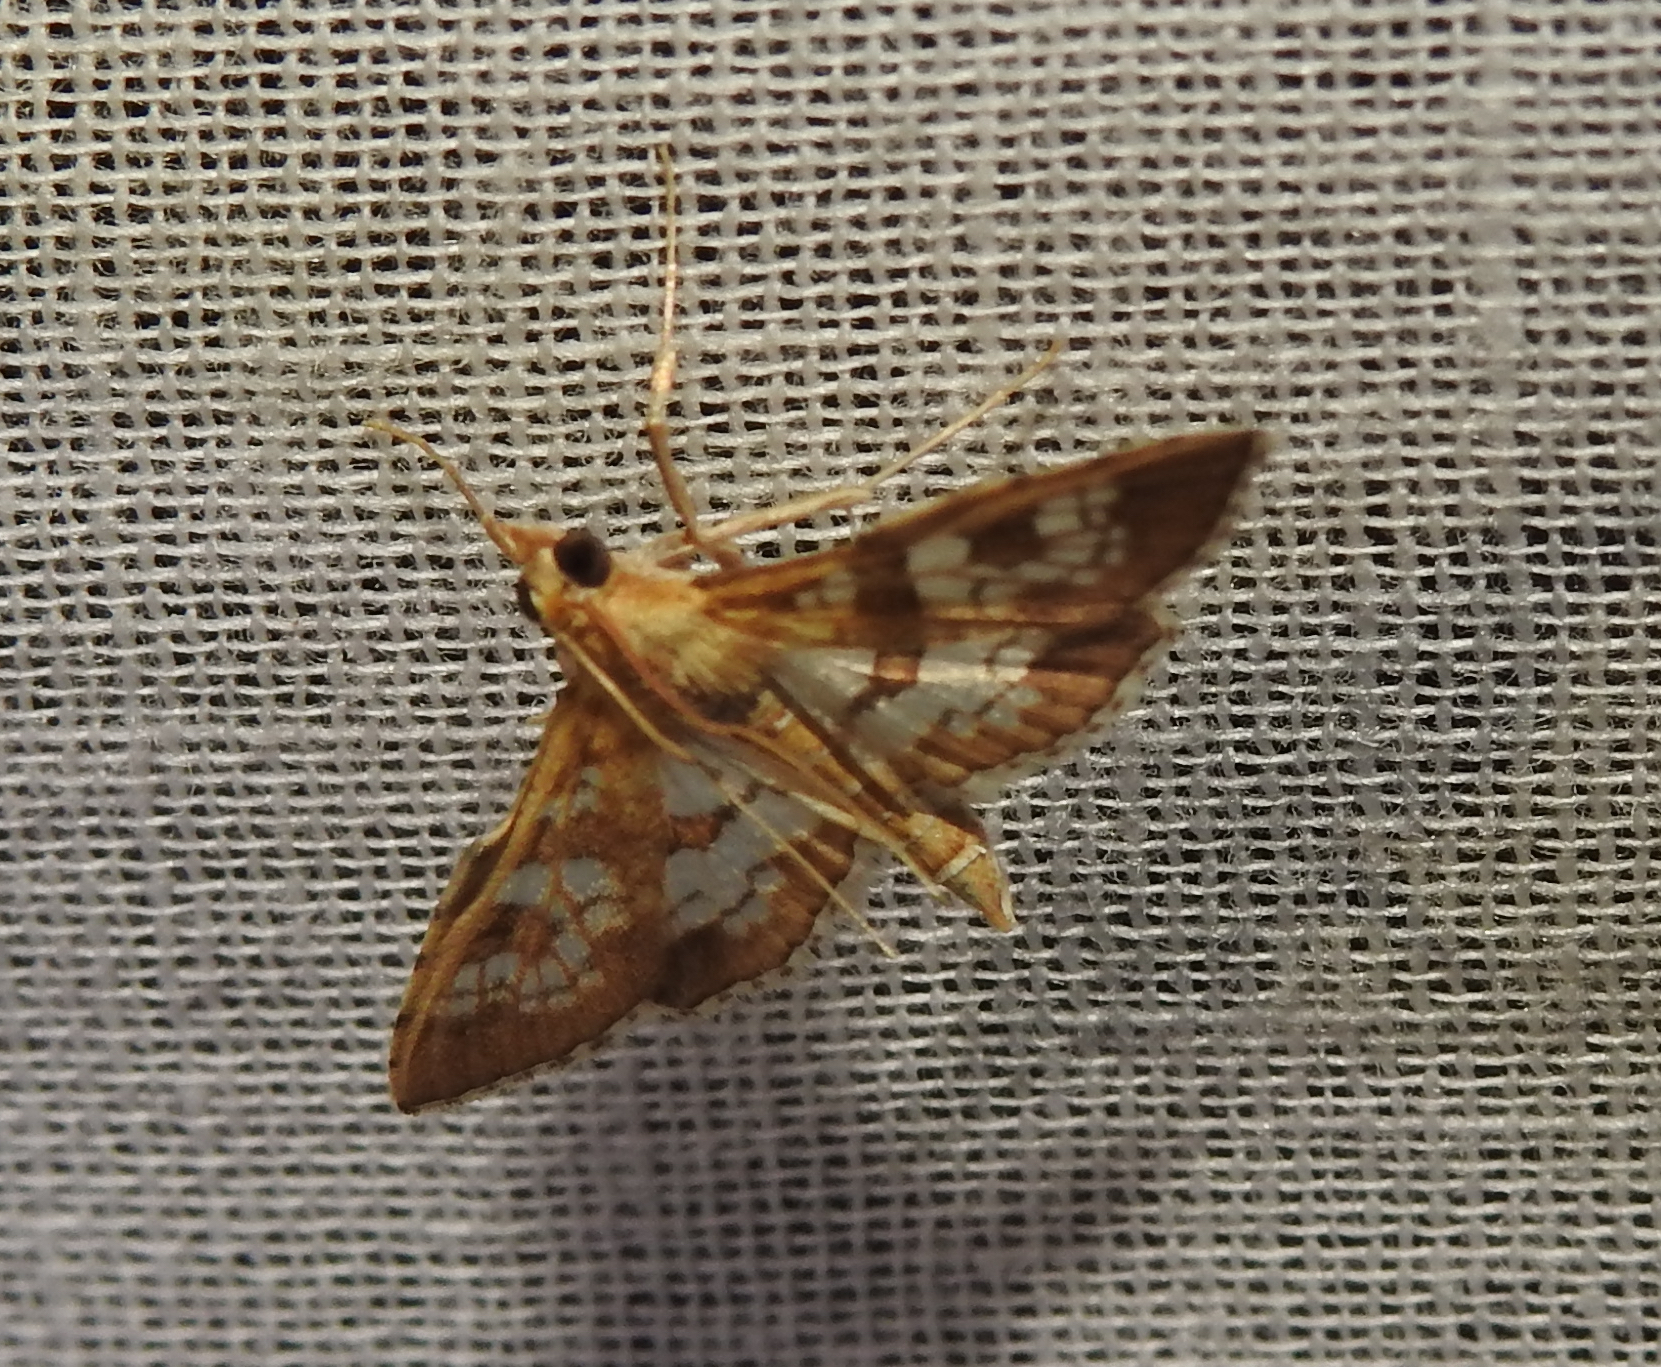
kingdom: Animalia
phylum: Arthropoda
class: Insecta
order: Lepidoptera
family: Crambidae
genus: Sameodes
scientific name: Sameodes cancellalis
